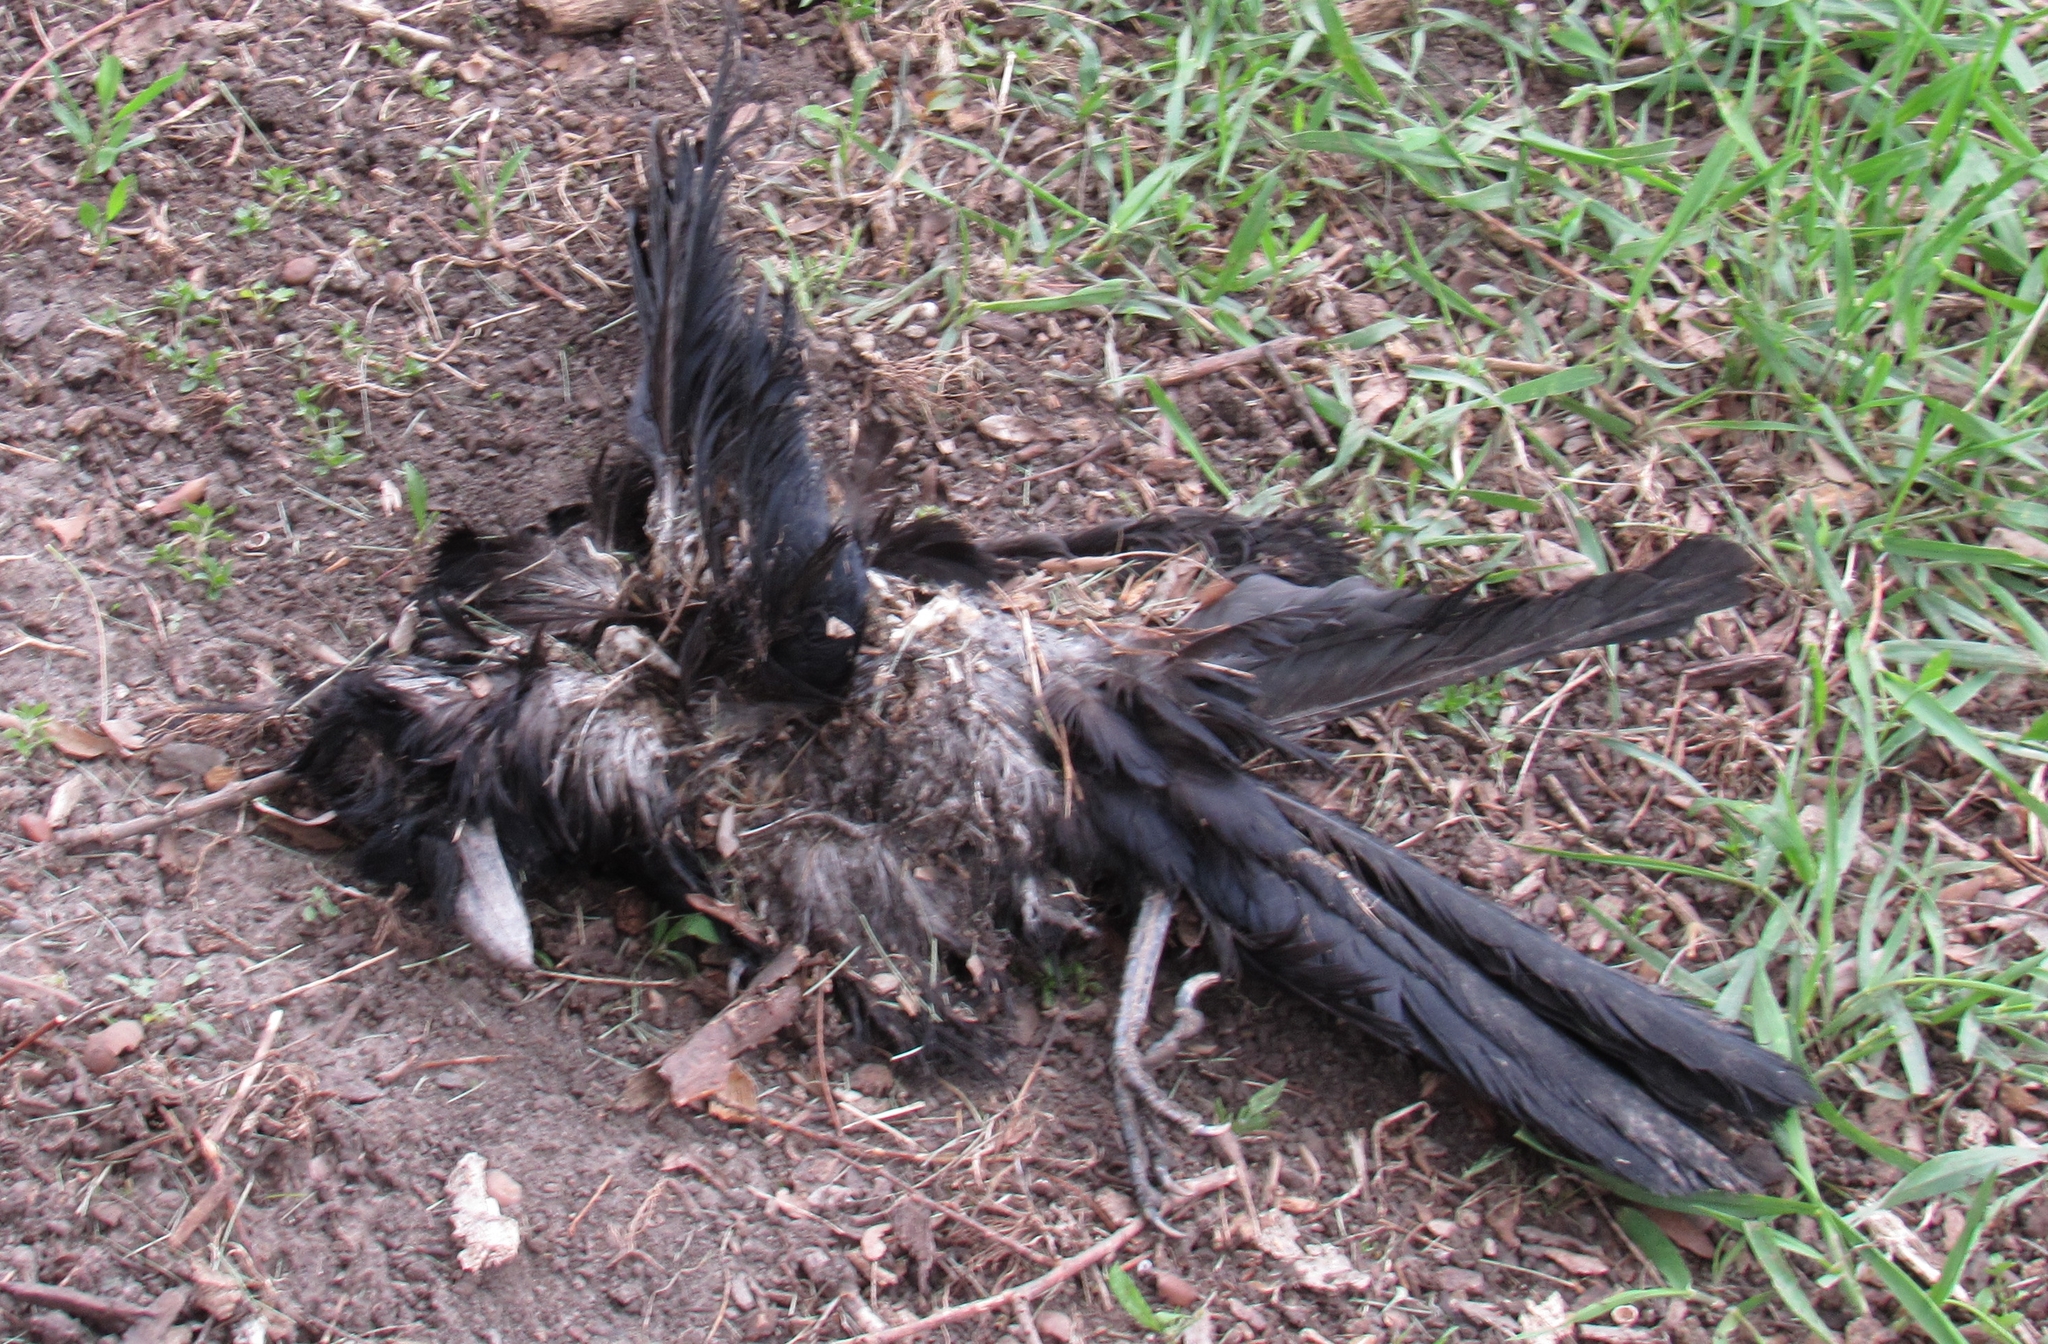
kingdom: Animalia
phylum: Chordata
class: Aves
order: Passeriformes
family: Corvidae
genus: Corvus
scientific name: Corvus brachyrhynchos
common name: American crow
